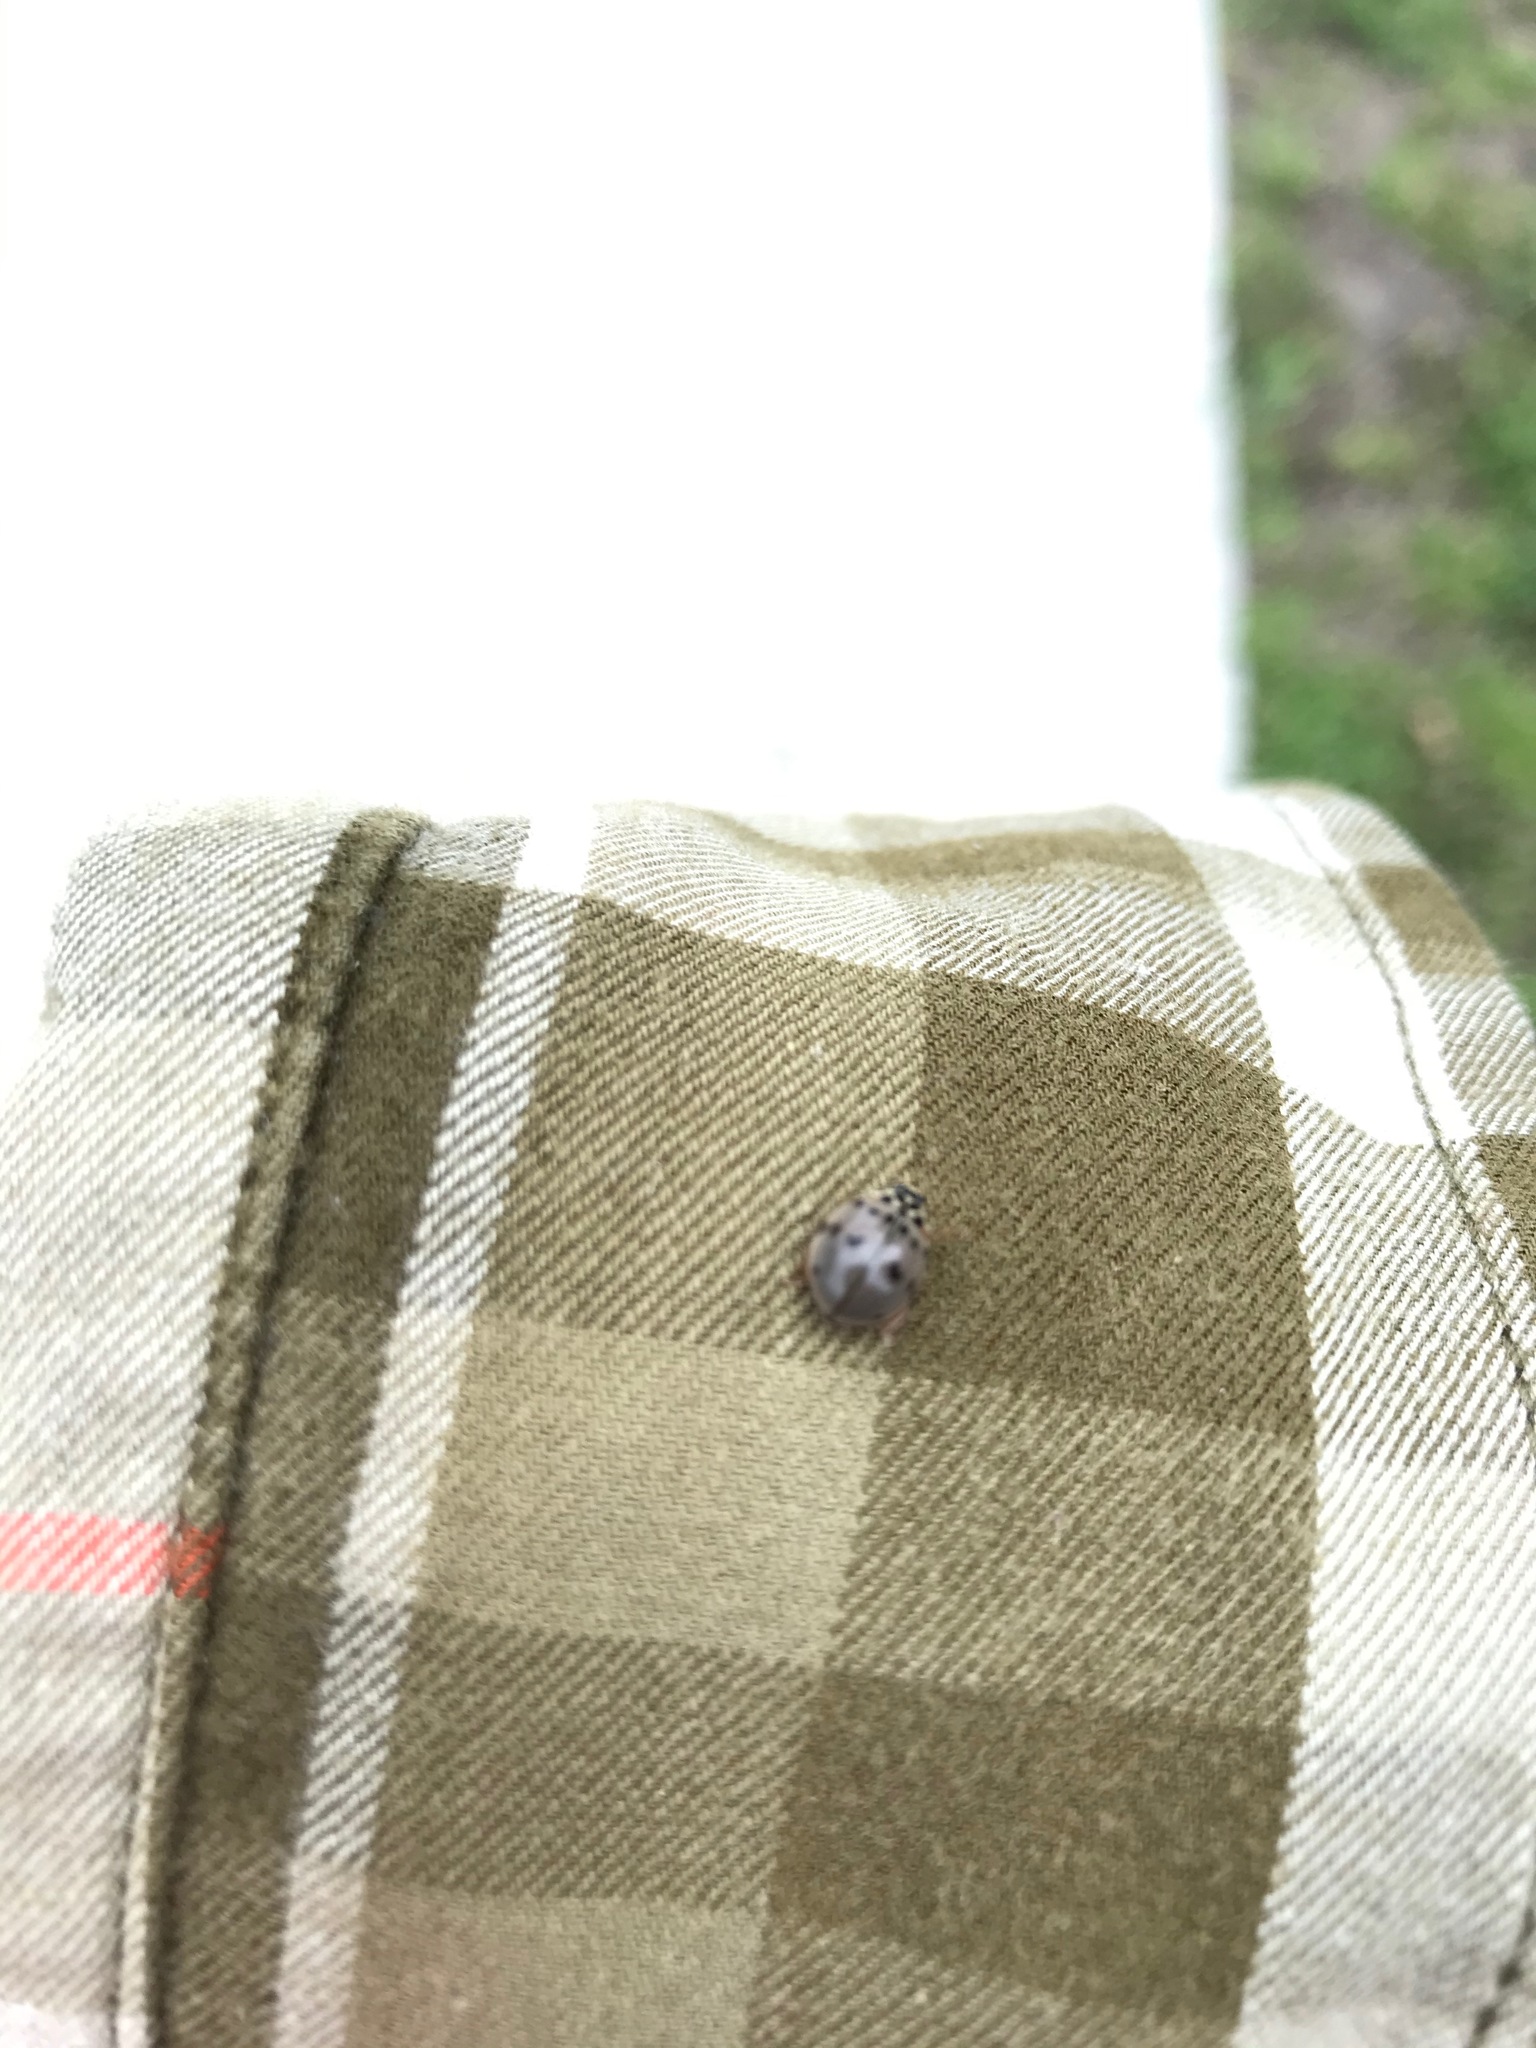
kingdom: Animalia
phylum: Arthropoda
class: Insecta
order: Coleoptera
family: Coccinellidae
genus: Olla
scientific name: Olla v-nigrum
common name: Ashy gray lady beetle
